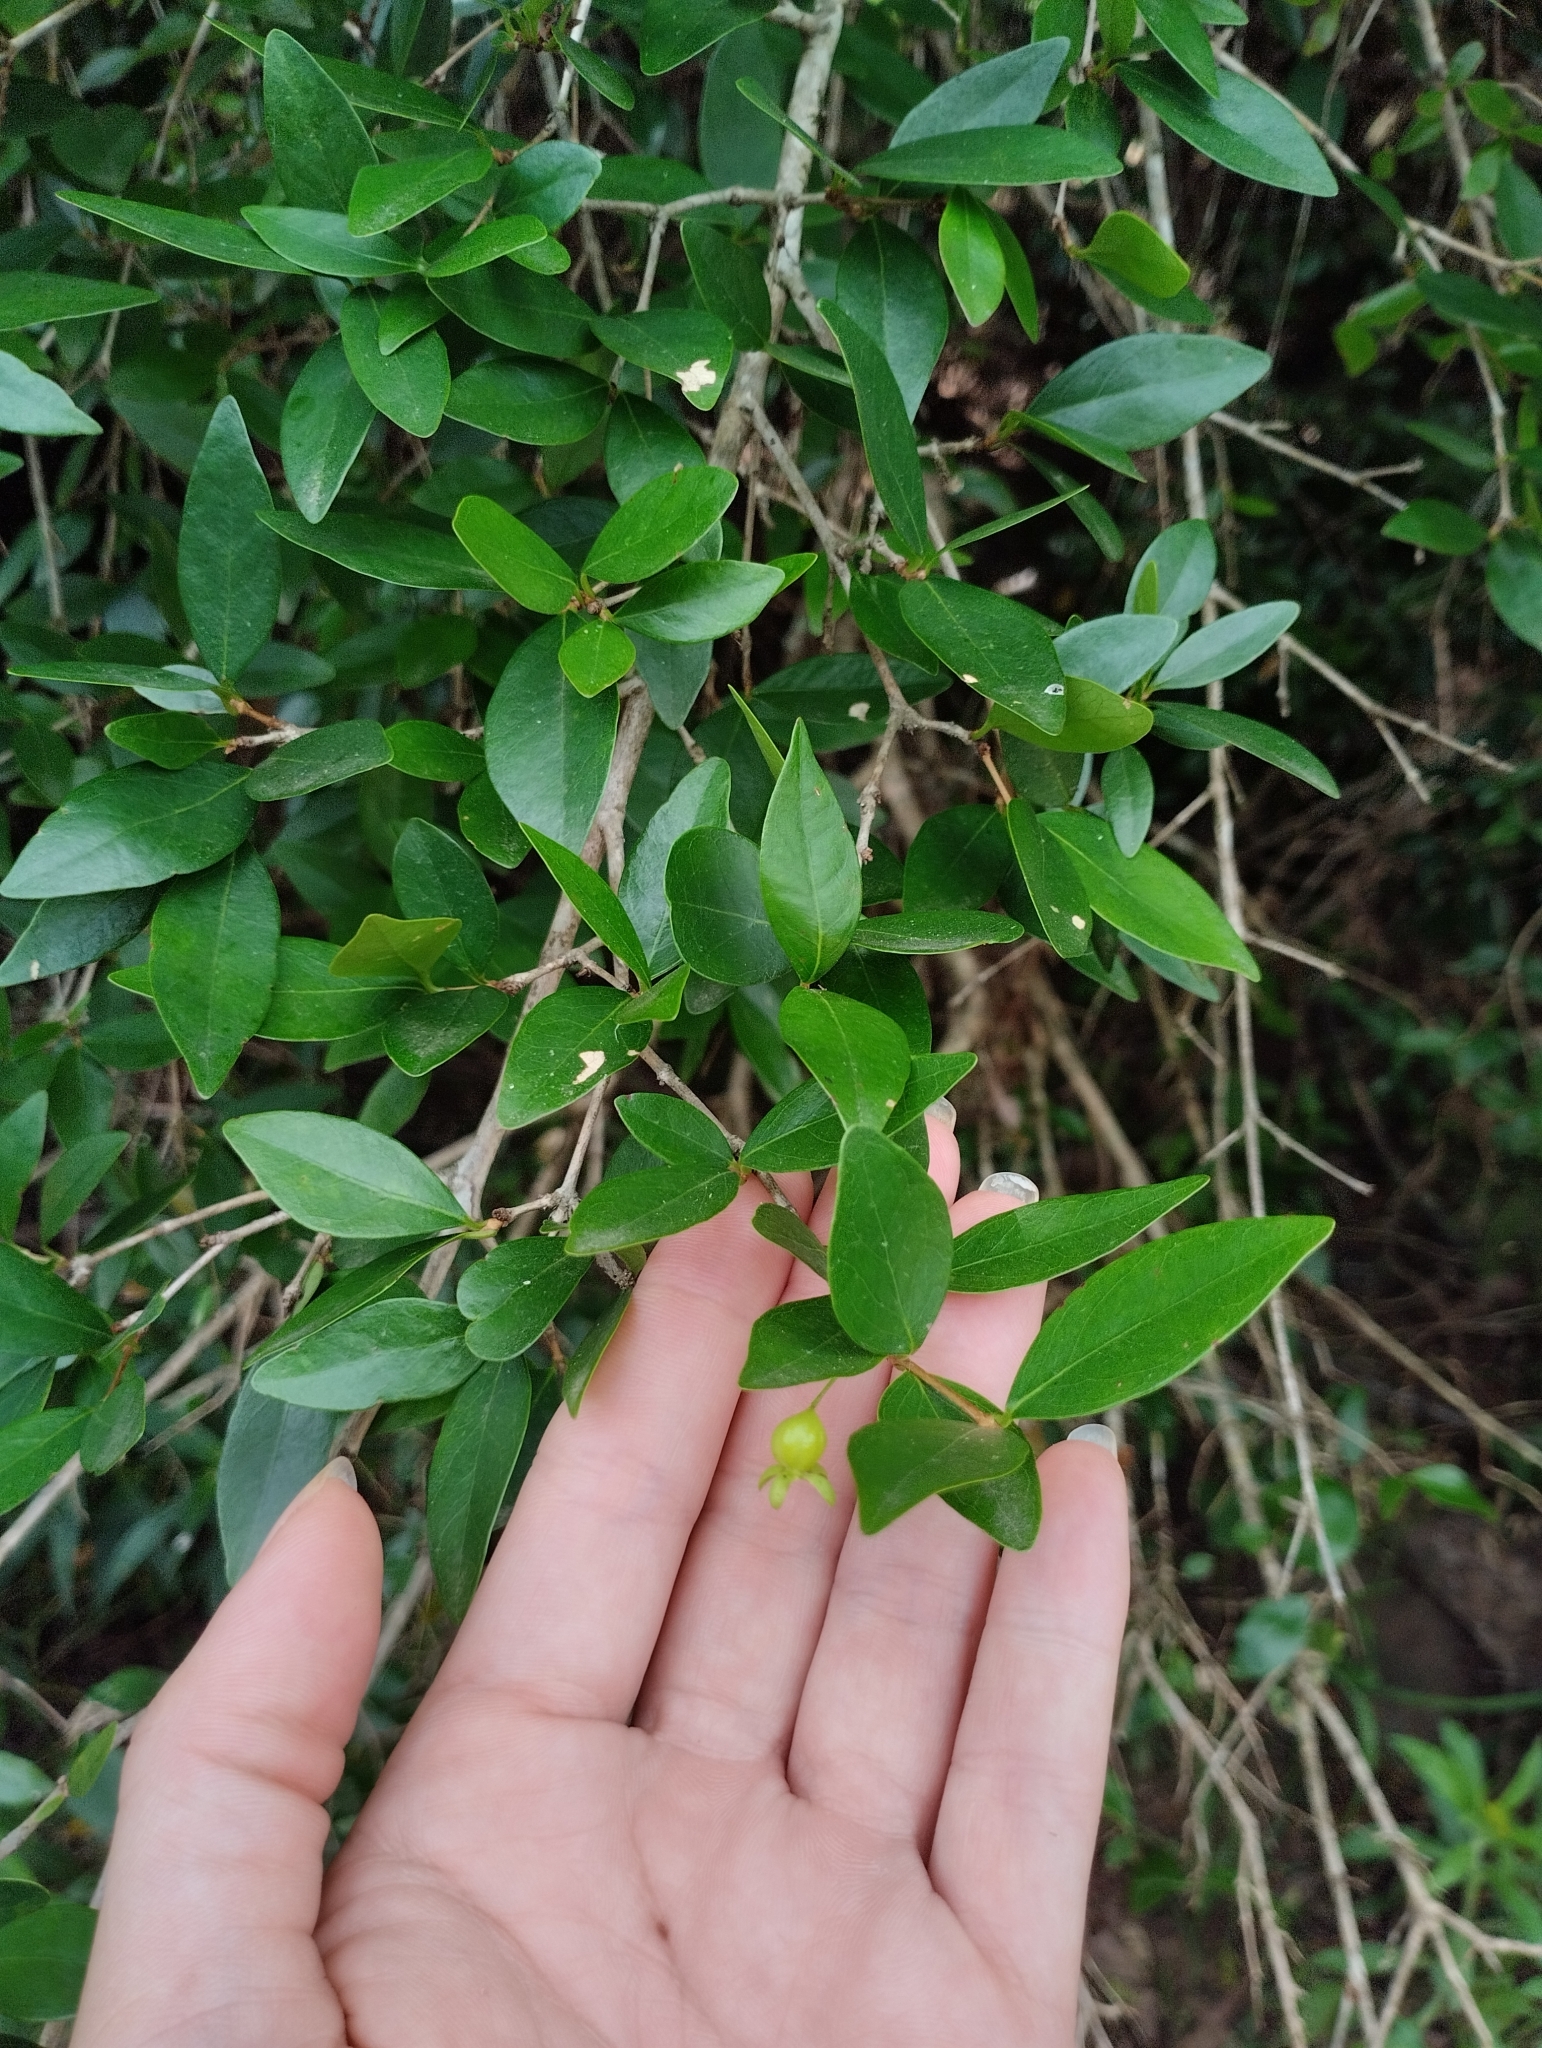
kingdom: Plantae
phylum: Tracheophyta
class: Magnoliopsida
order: Myrtales
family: Myrtaceae
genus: Eugenia
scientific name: Eugenia uniflora
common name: Surinam cherry
